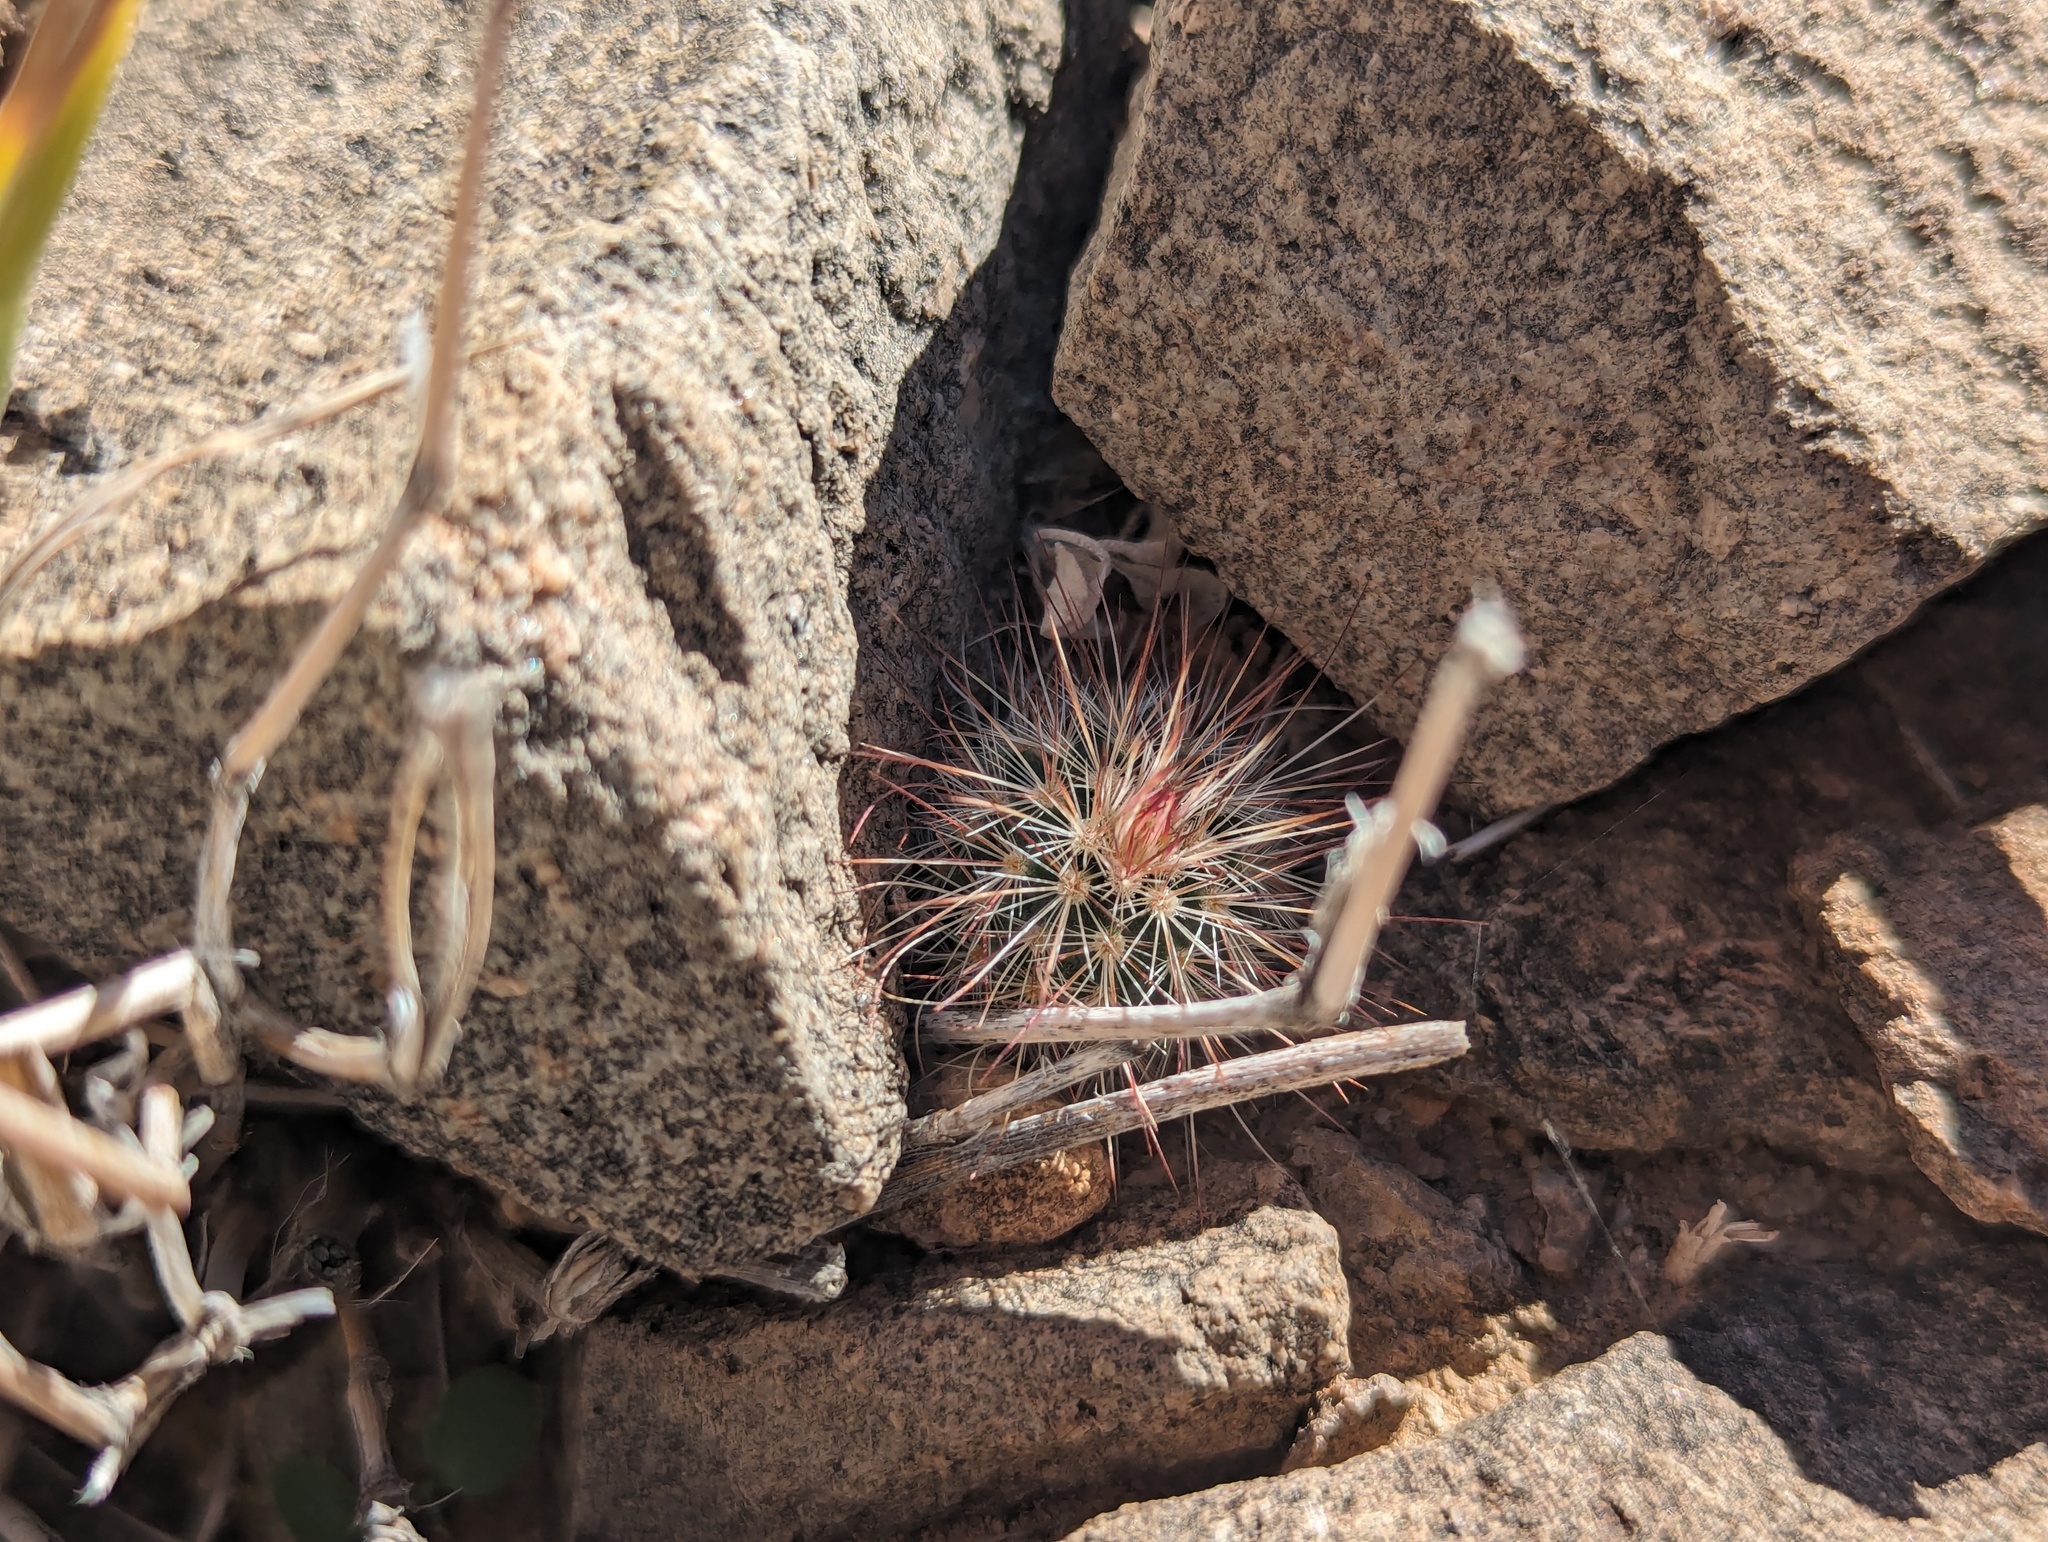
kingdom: Plantae
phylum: Tracheophyta
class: Magnoliopsida
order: Caryophyllales
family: Cactaceae
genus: Echinocereus
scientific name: Echinocereus russanthus
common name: Brownspine hedgehog cactus
